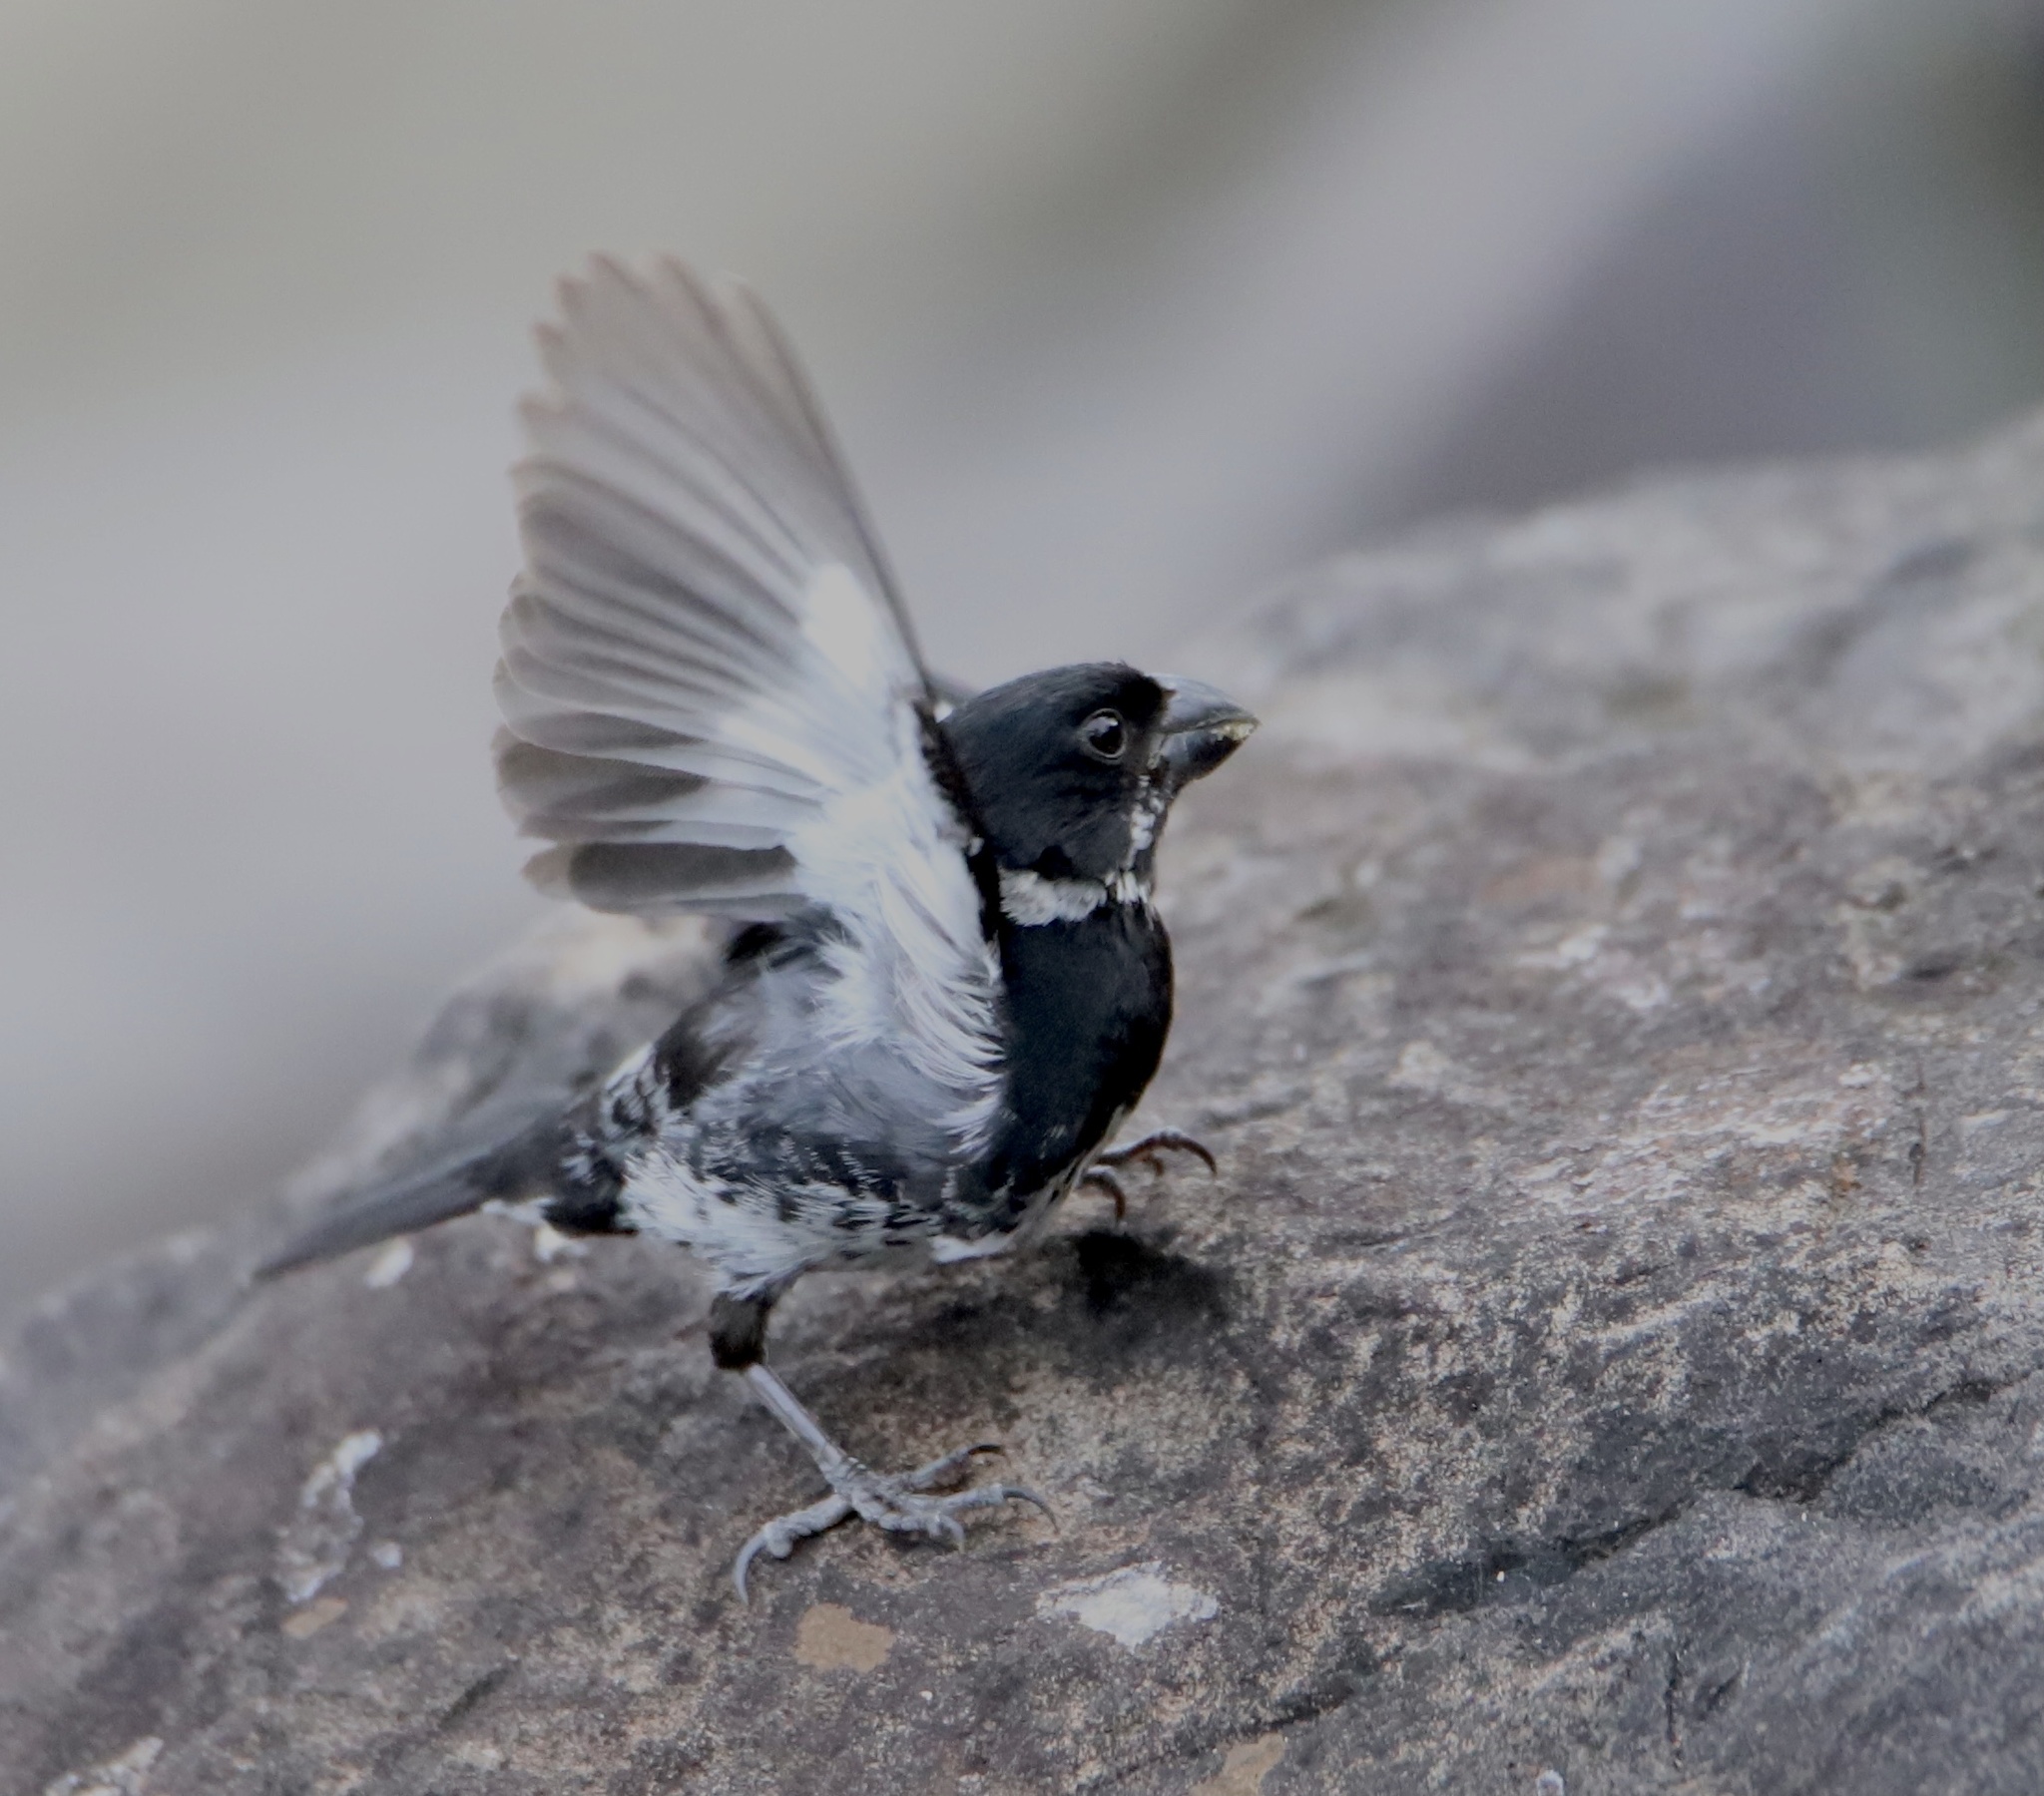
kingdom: Animalia
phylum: Chordata
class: Aves
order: Passeriformes
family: Thraupidae
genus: Sporophila
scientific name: Sporophila corvina
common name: Variable seedeater
